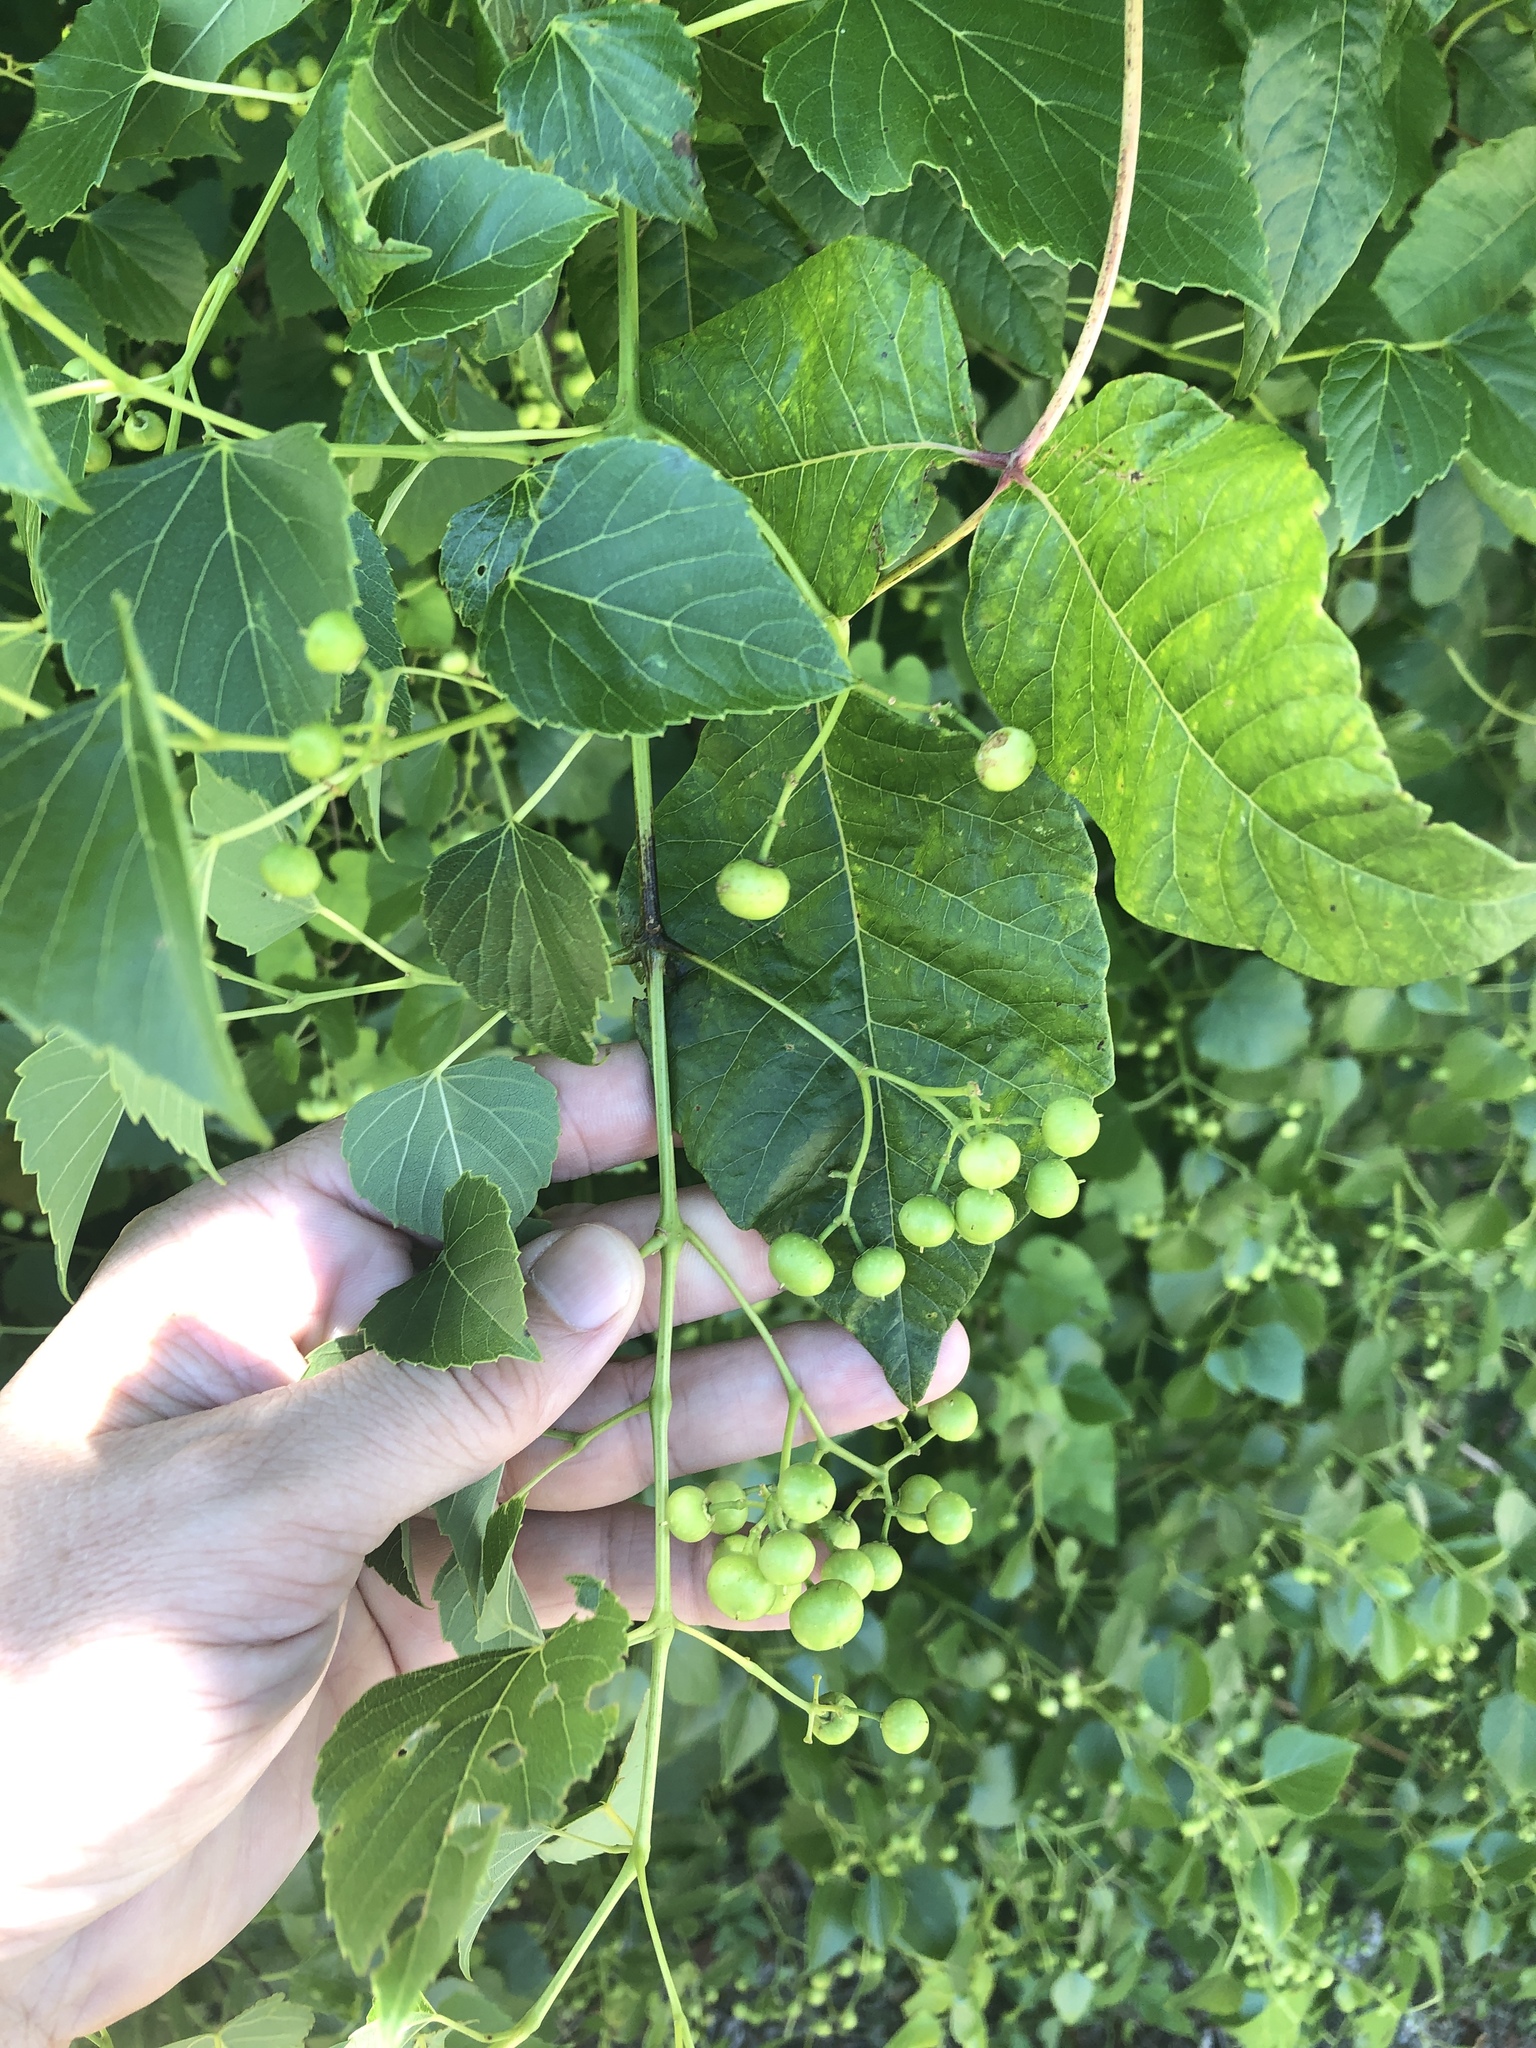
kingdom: Plantae
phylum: Tracheophyta
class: Magnoliopsida
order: Vitales
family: Vitaceae
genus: Ampelopsis
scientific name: Ampelopsis cordata
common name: Heart-leaf ampelopsis
